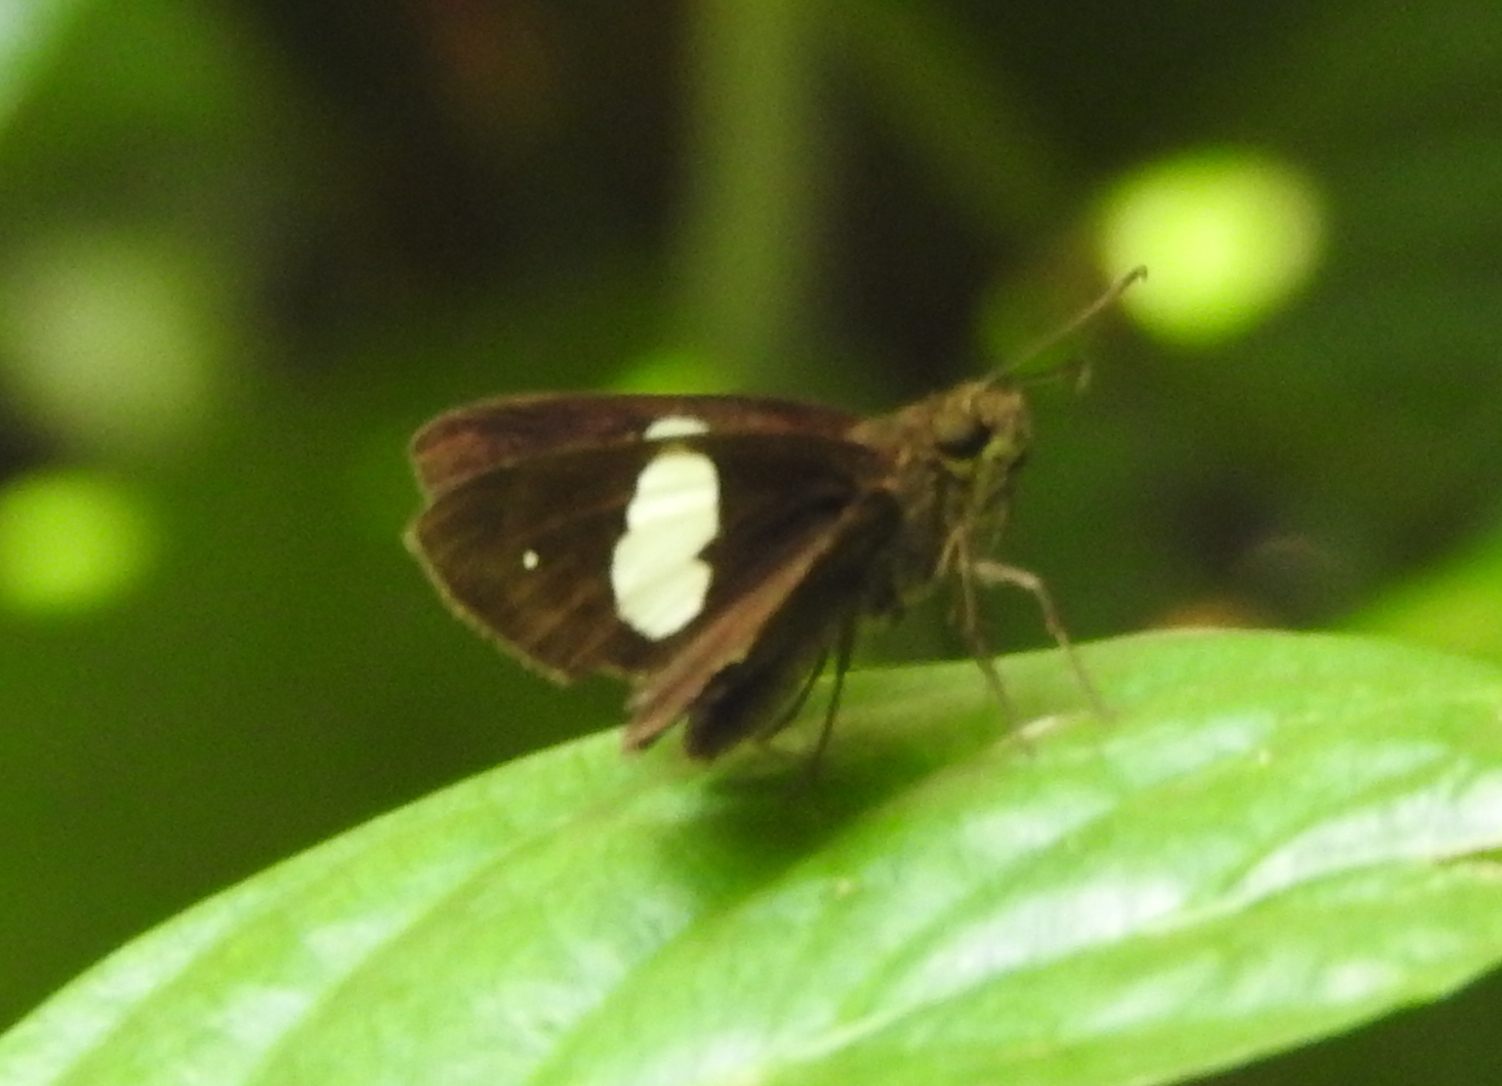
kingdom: Animalia
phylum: Arthropoda
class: Insecta
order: Lepidoptera
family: Hesperiidae
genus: Notocrypta
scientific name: Notocrypta paralysos
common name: Common banded demon
